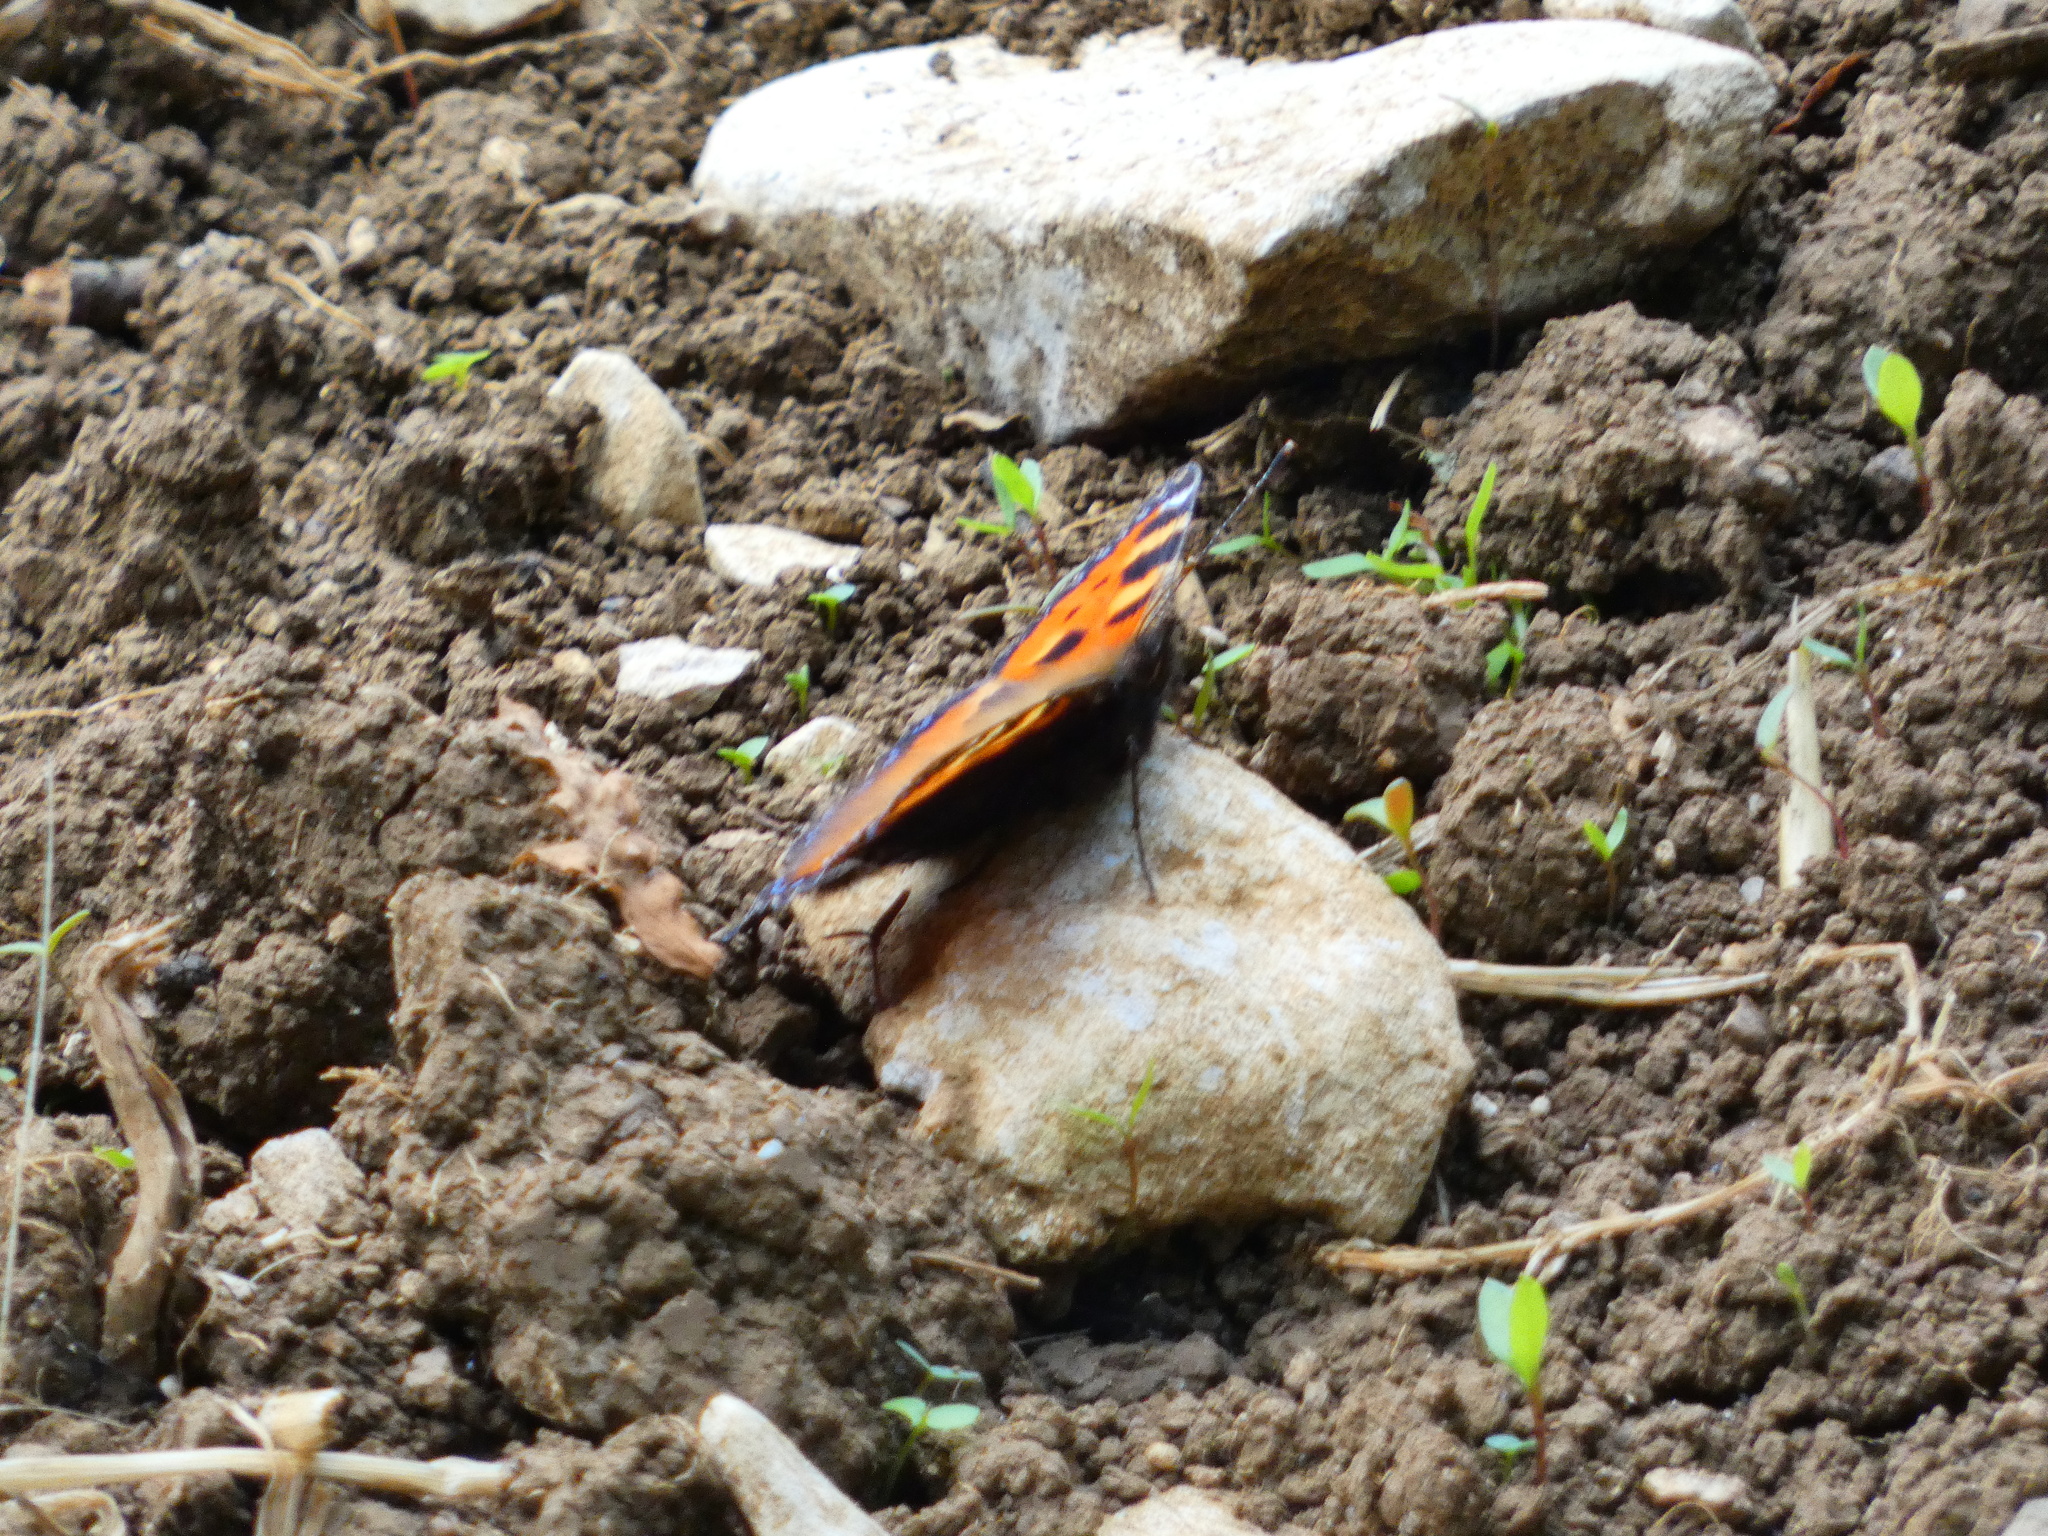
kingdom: Animalia
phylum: Arthropoda
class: Insecta
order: Lepidoptera
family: Nymphalidae
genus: Aglais
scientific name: Aglais urticae
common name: Small tortoiseshell
